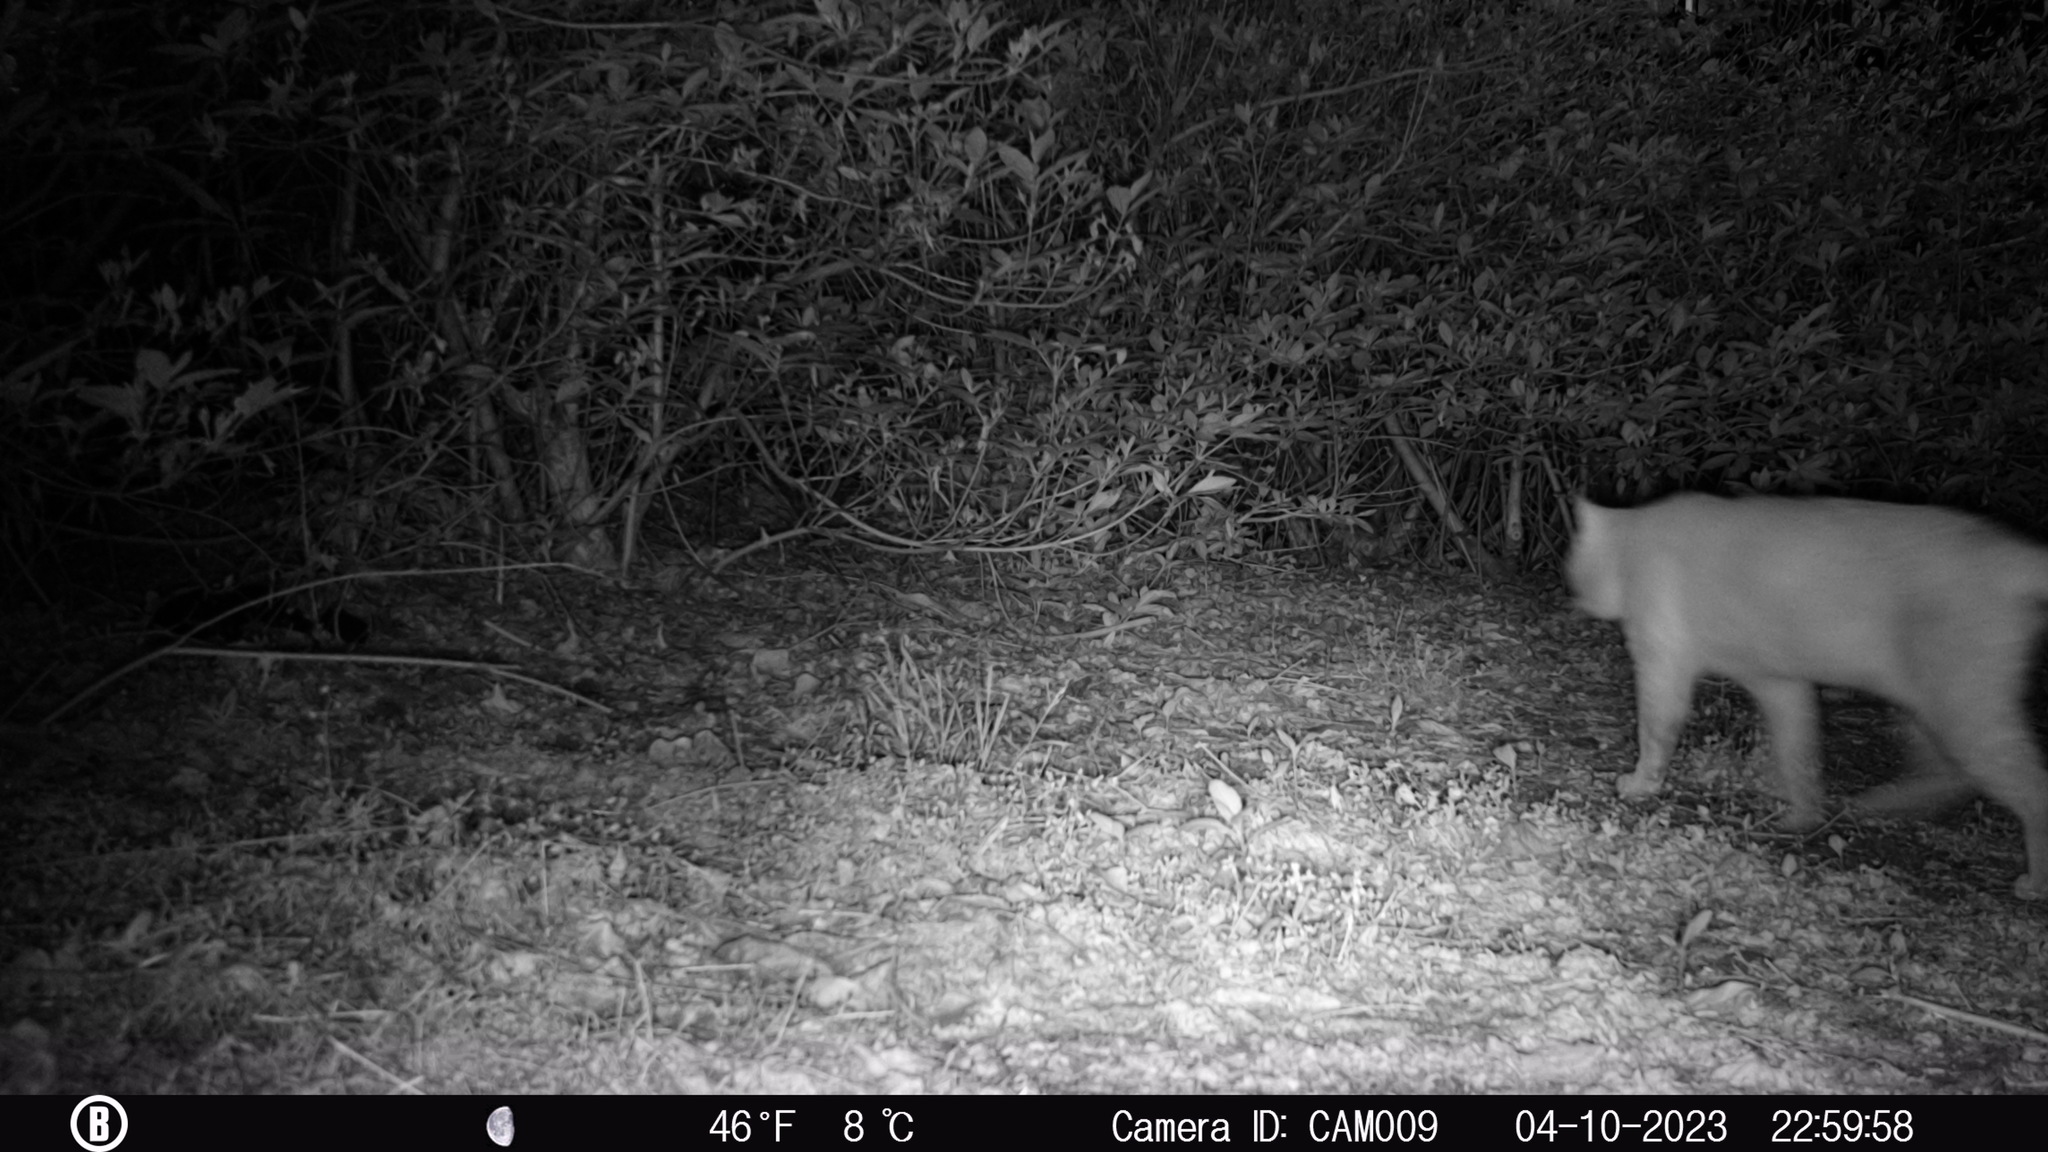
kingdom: Animalia
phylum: Chordata
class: Mammalia
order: Carnivora
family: Felidae
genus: Felis
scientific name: Felis catus
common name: Domestic cat
